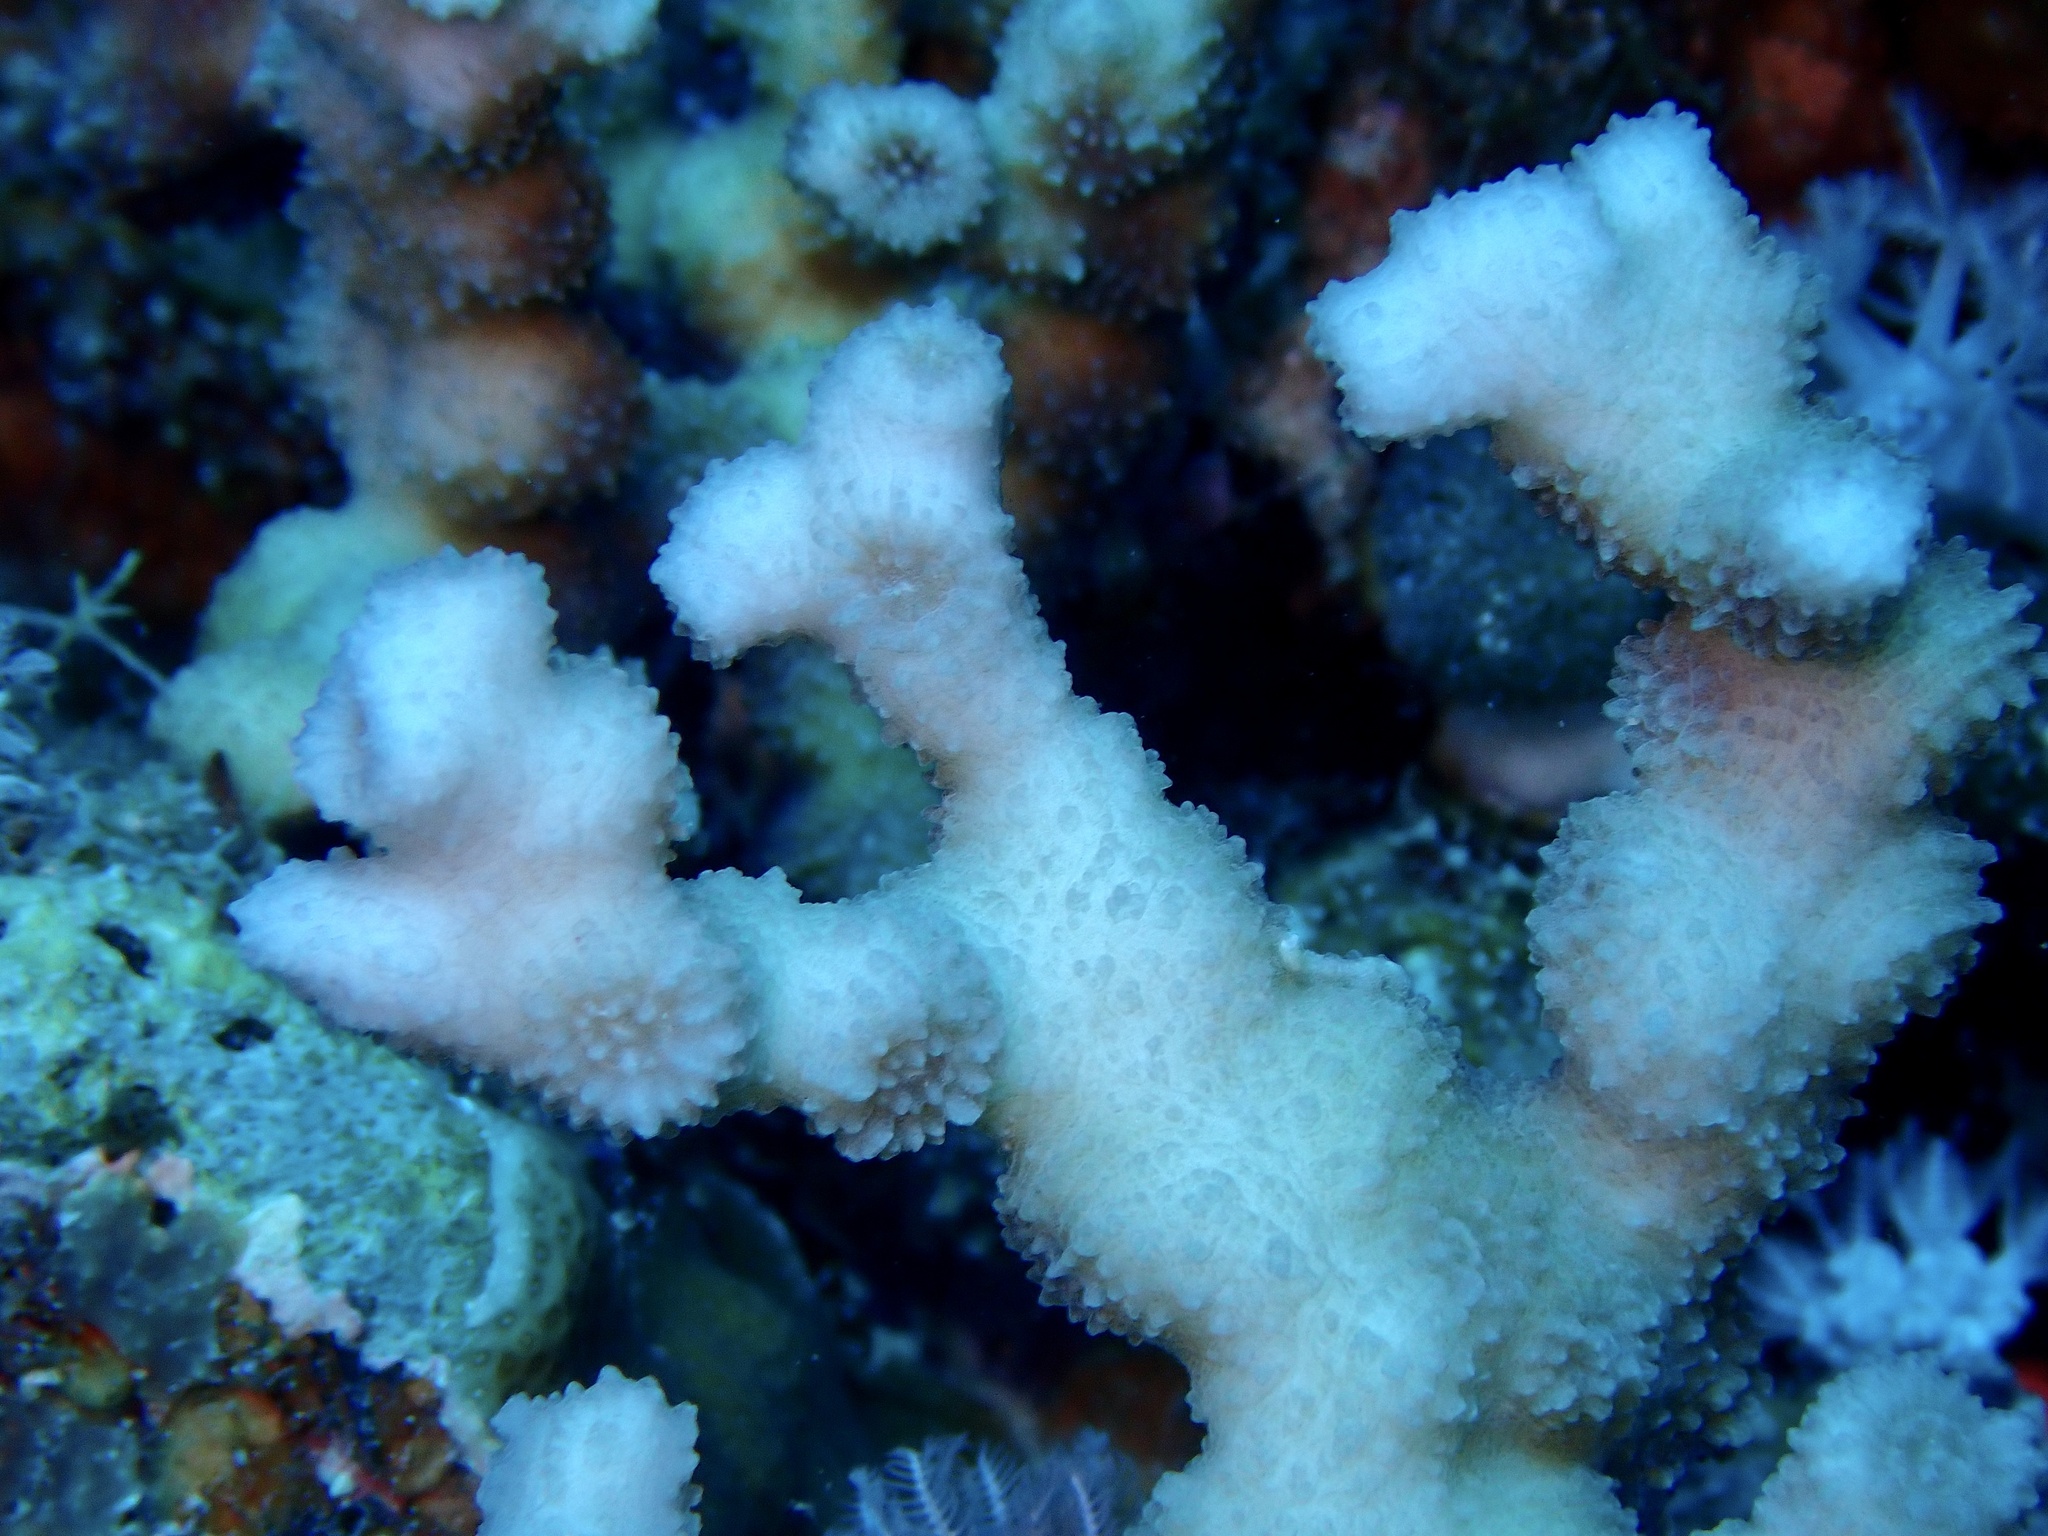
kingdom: Animalia
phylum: Cnidaria
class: Anthozoa
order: Scleractinia
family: Merulinidae
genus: Echinopora
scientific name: Echinopora fruticulosa
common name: Hedgehog coral
